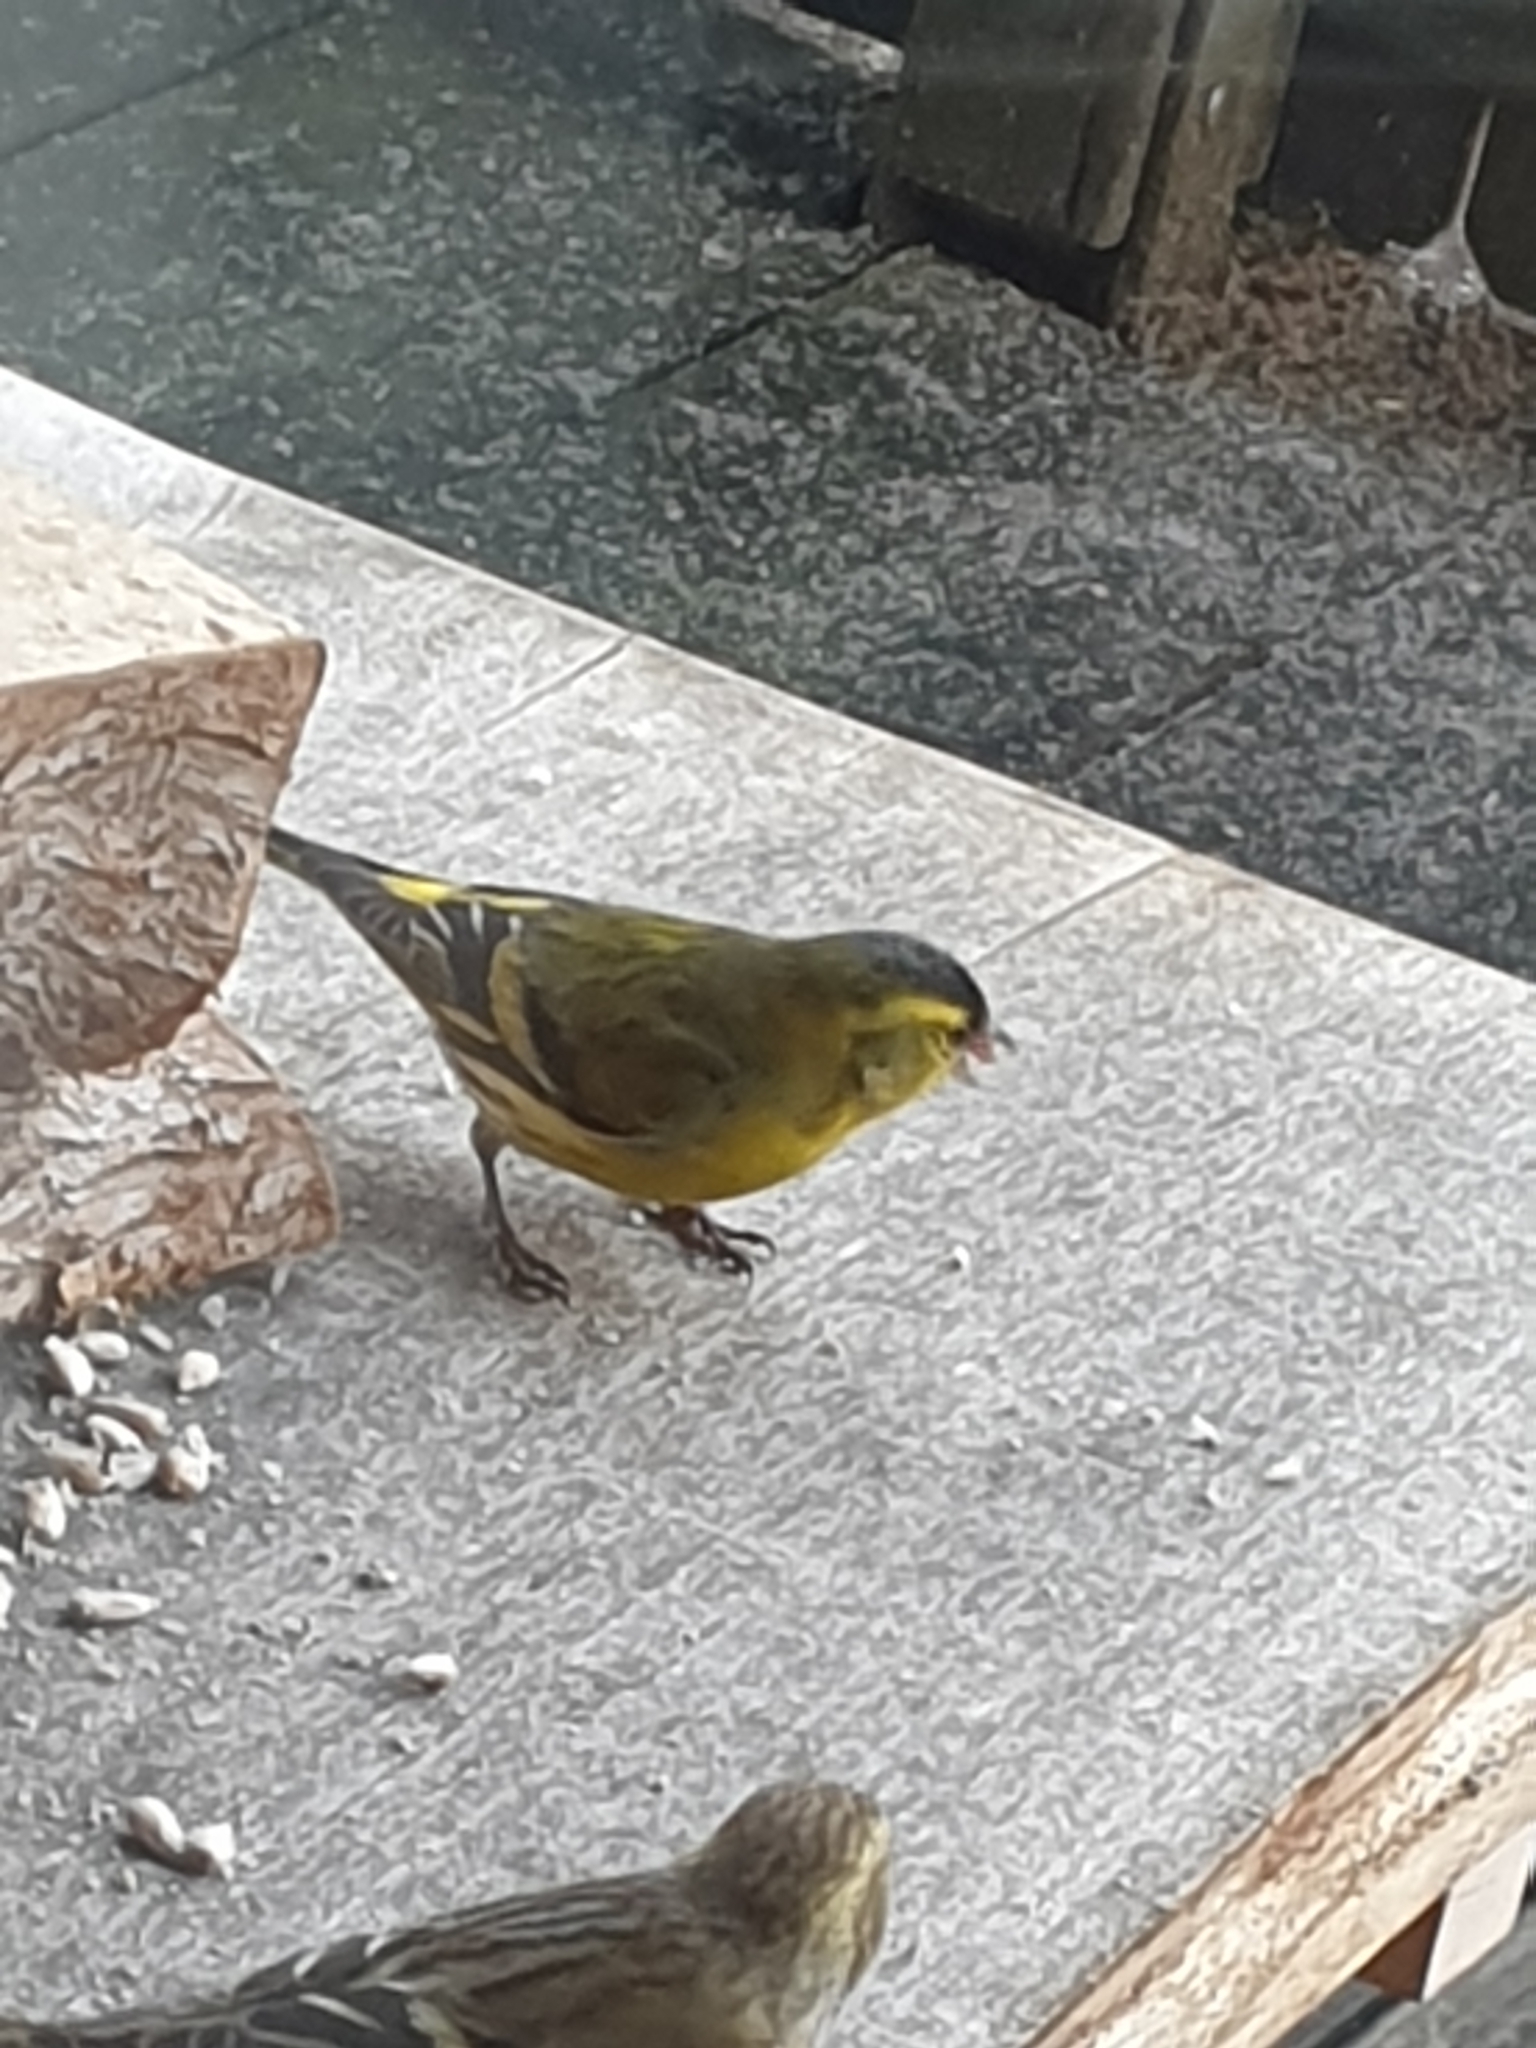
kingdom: Animalia
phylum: Chordata
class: Aves
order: Passeriformes
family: Fringillidae
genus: Spinus
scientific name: Spinus spinus
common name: Eurasian siskin
